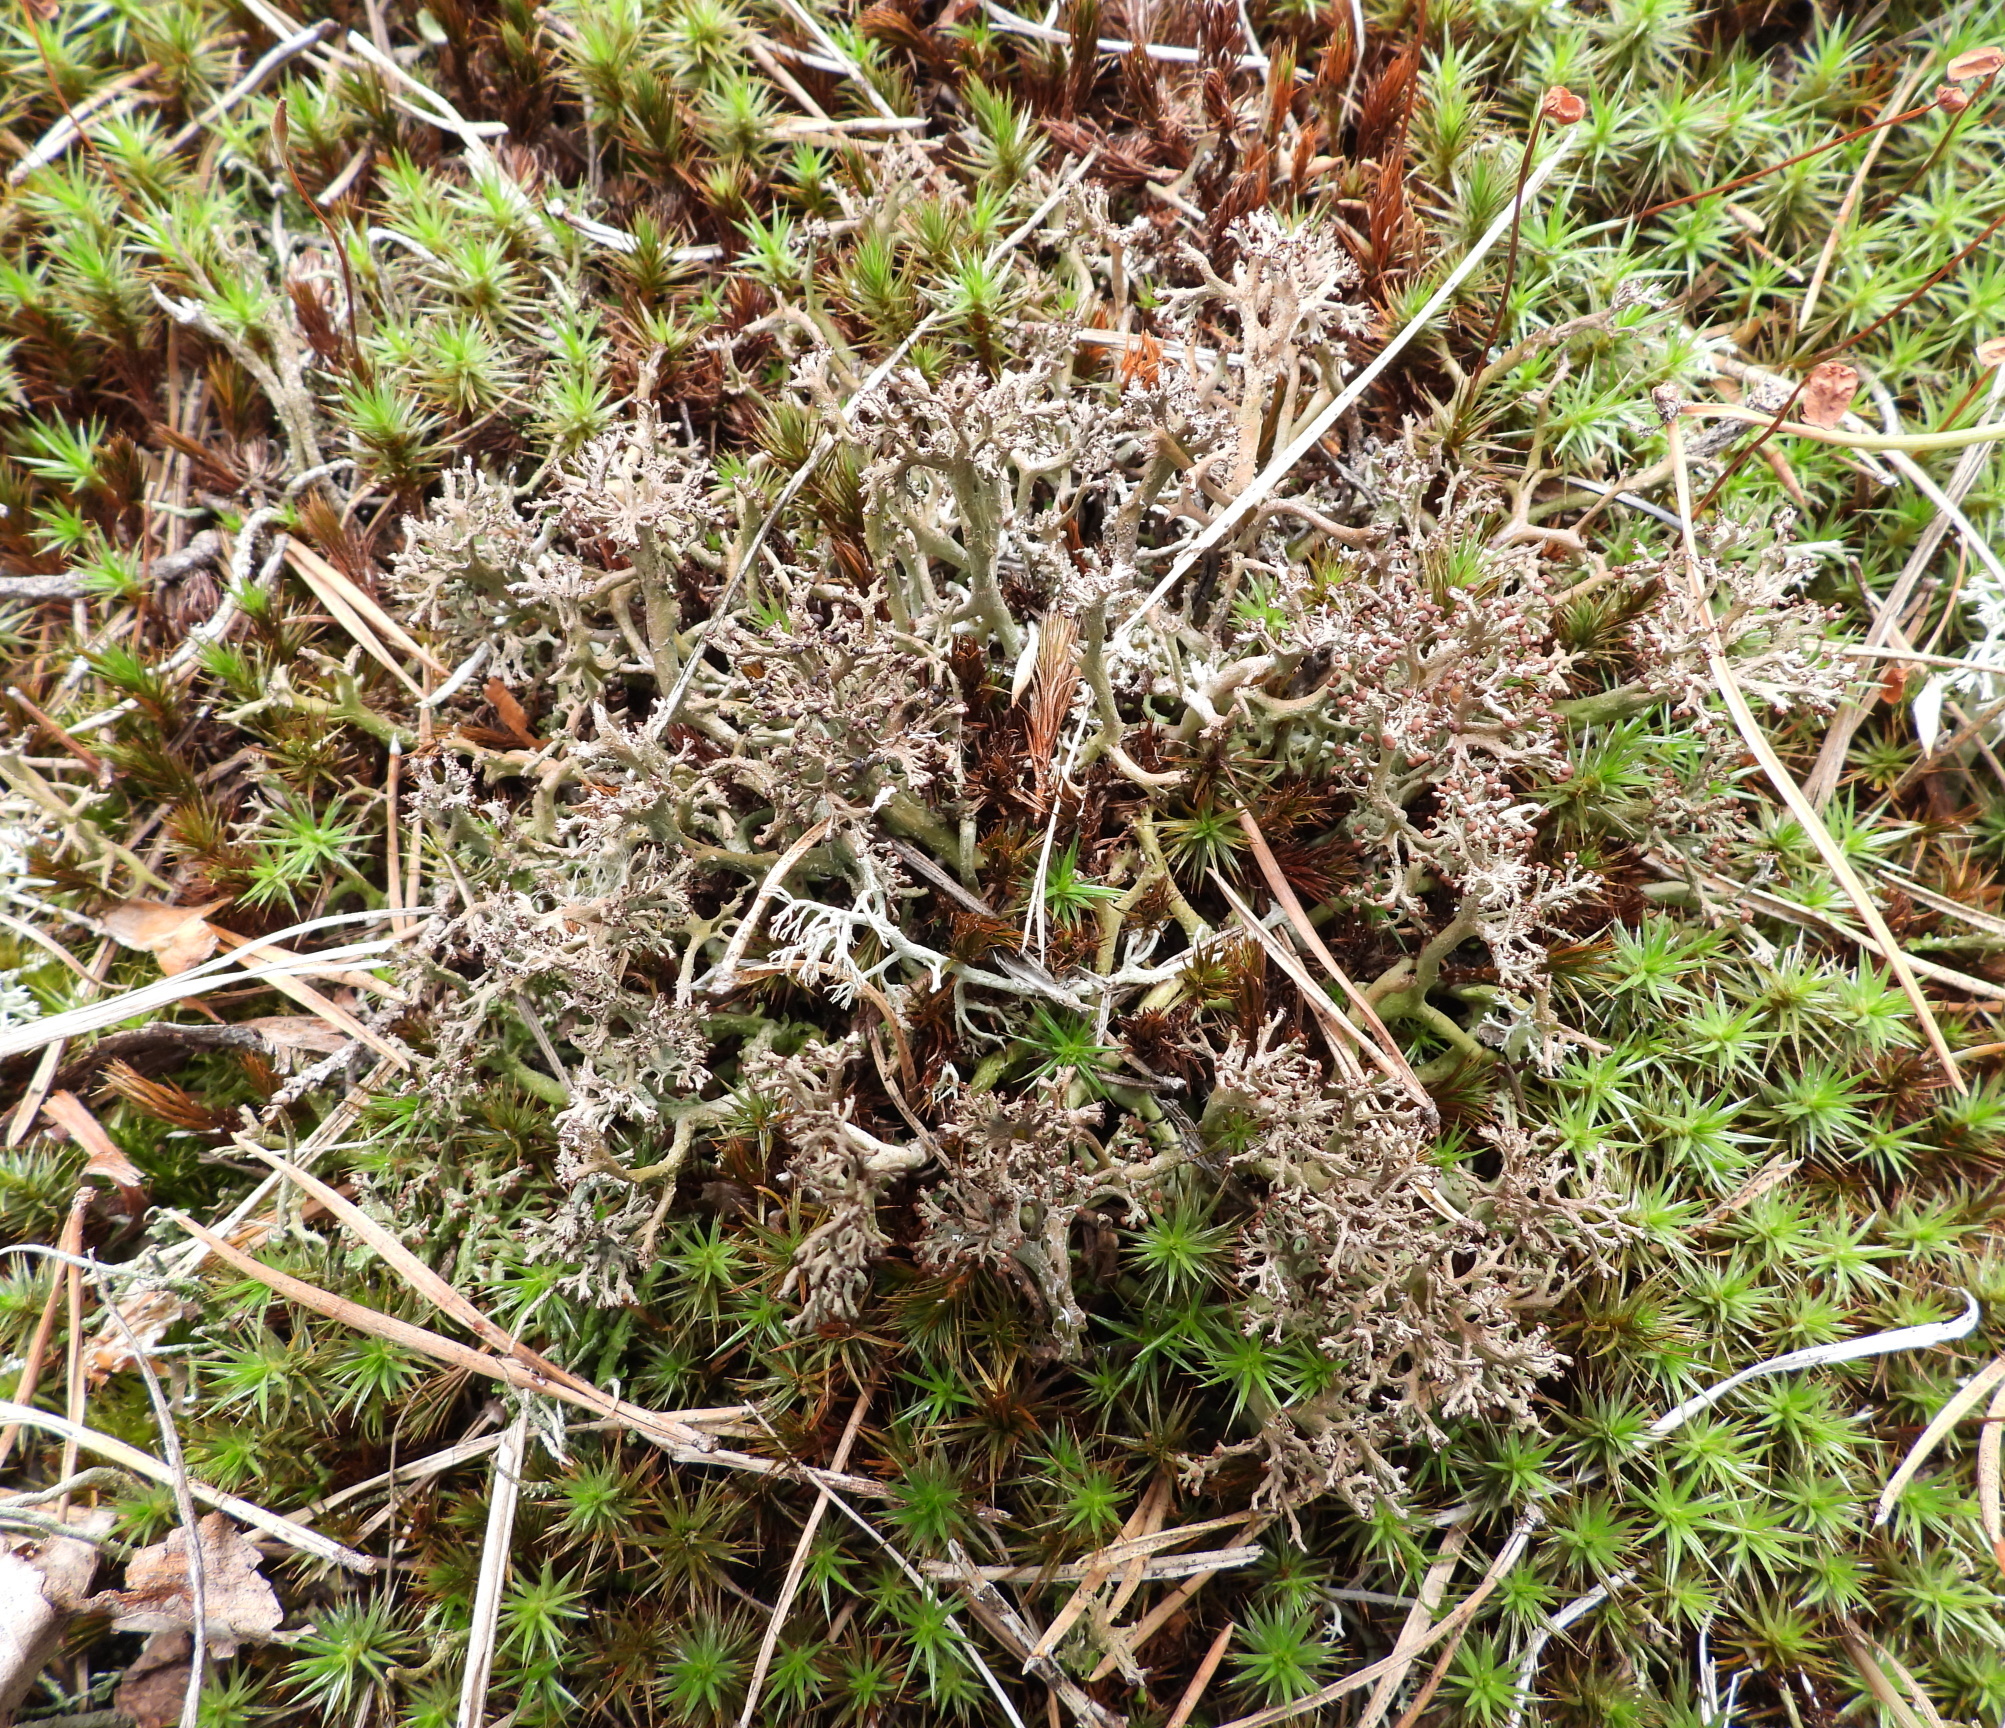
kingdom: Fungi
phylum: Ascomycota
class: Lecanoromycetes
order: Lecanorales
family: Cladoniaceae
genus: Cladonia
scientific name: Cladonia crispata
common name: Organ-pipe lichen
